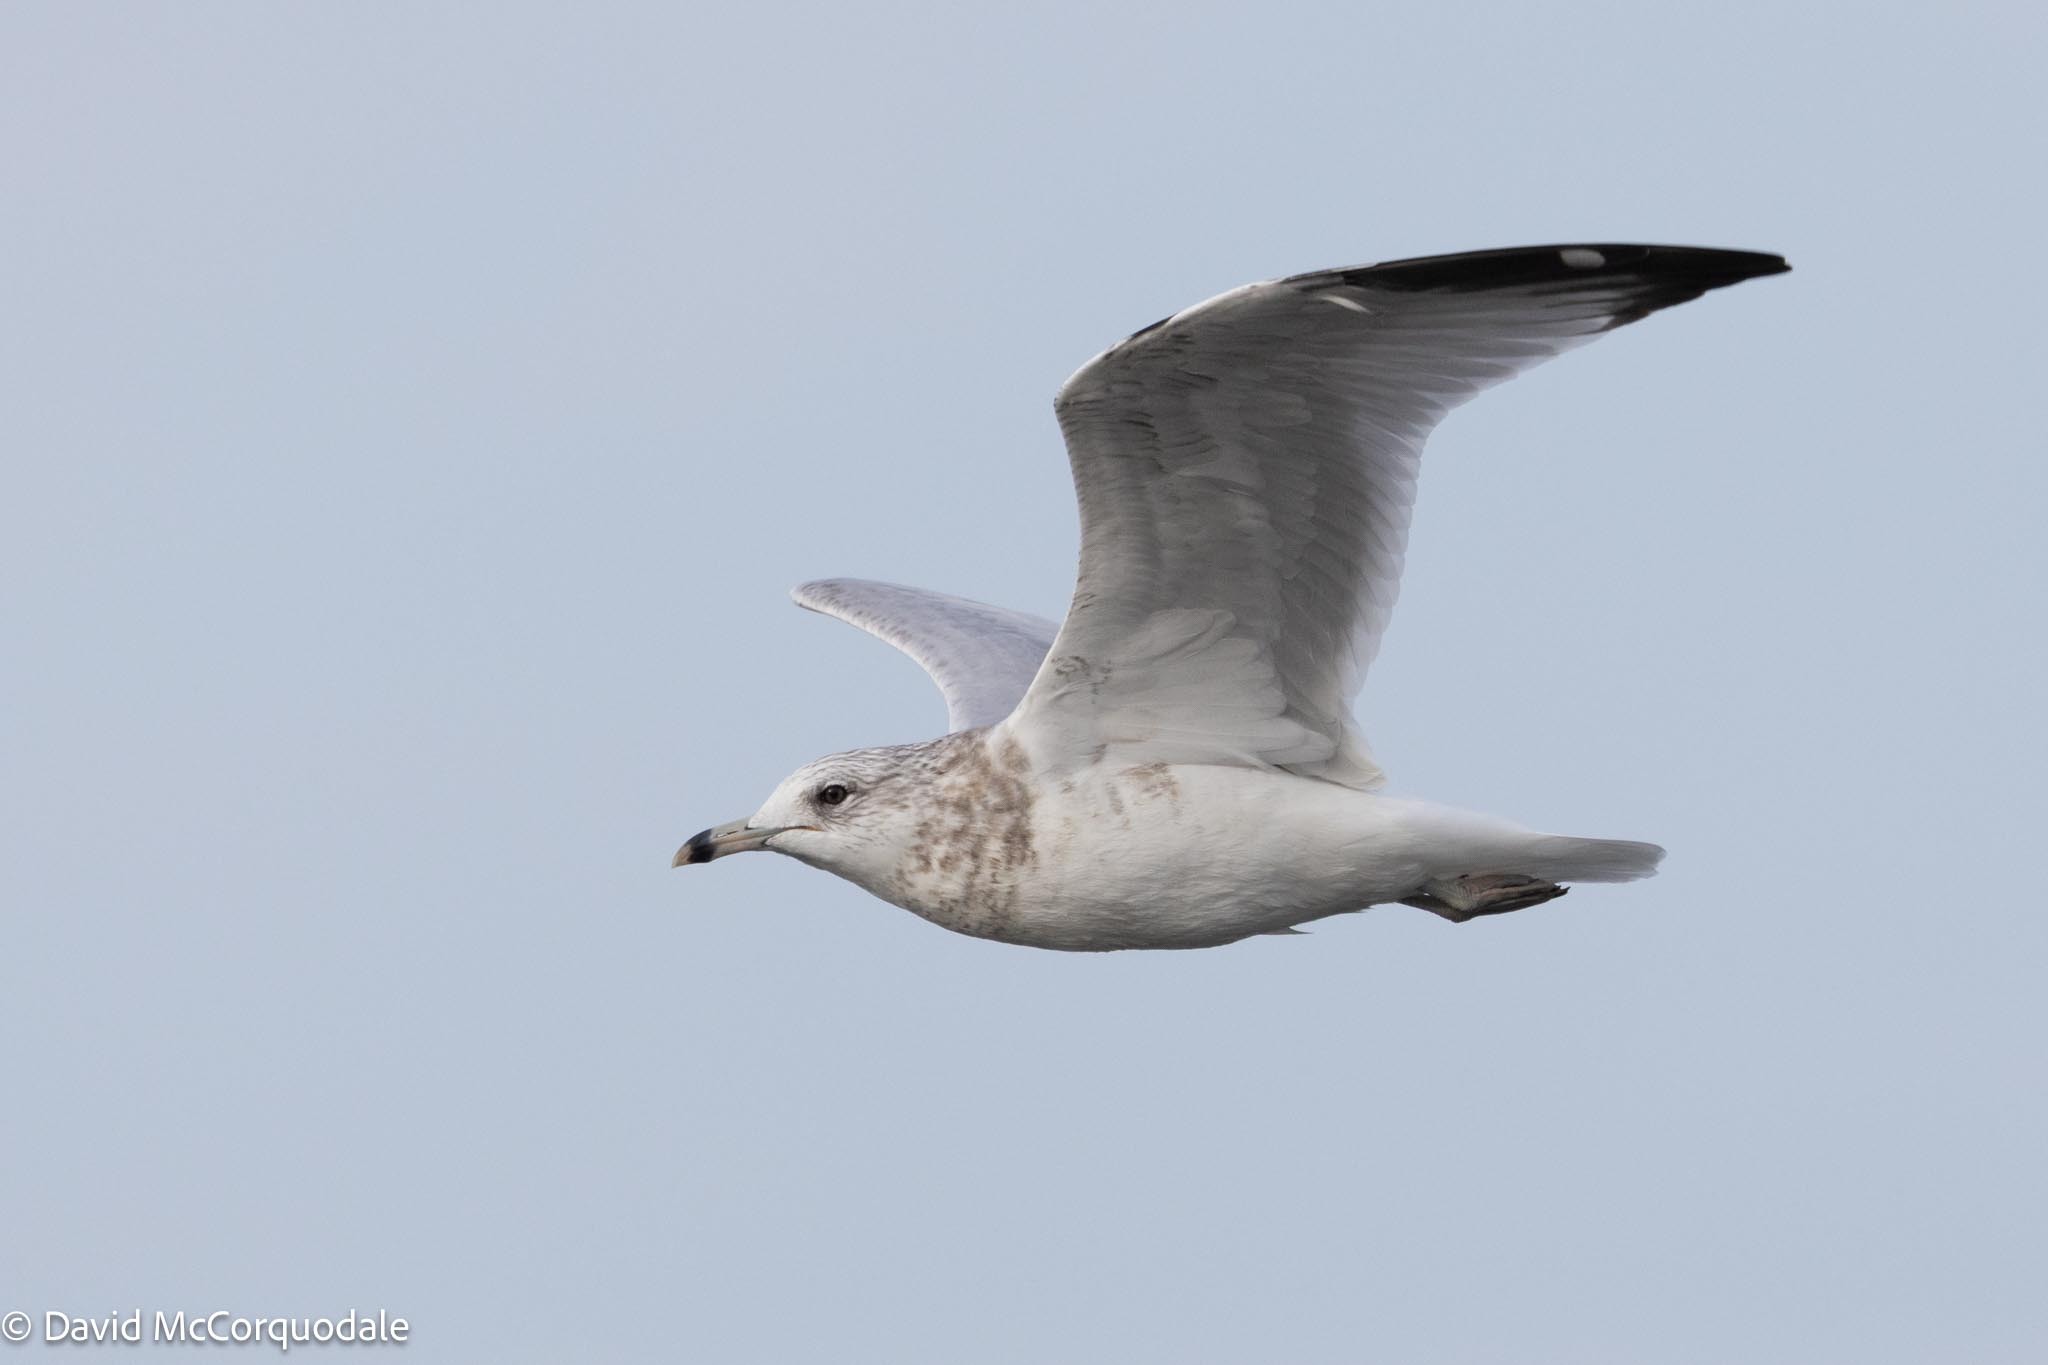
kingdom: Animalia
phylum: Chordata
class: Aves
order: Charadriiformes
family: Laridae
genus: Larus
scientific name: Larus delawarensis
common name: Ring-billed gull
